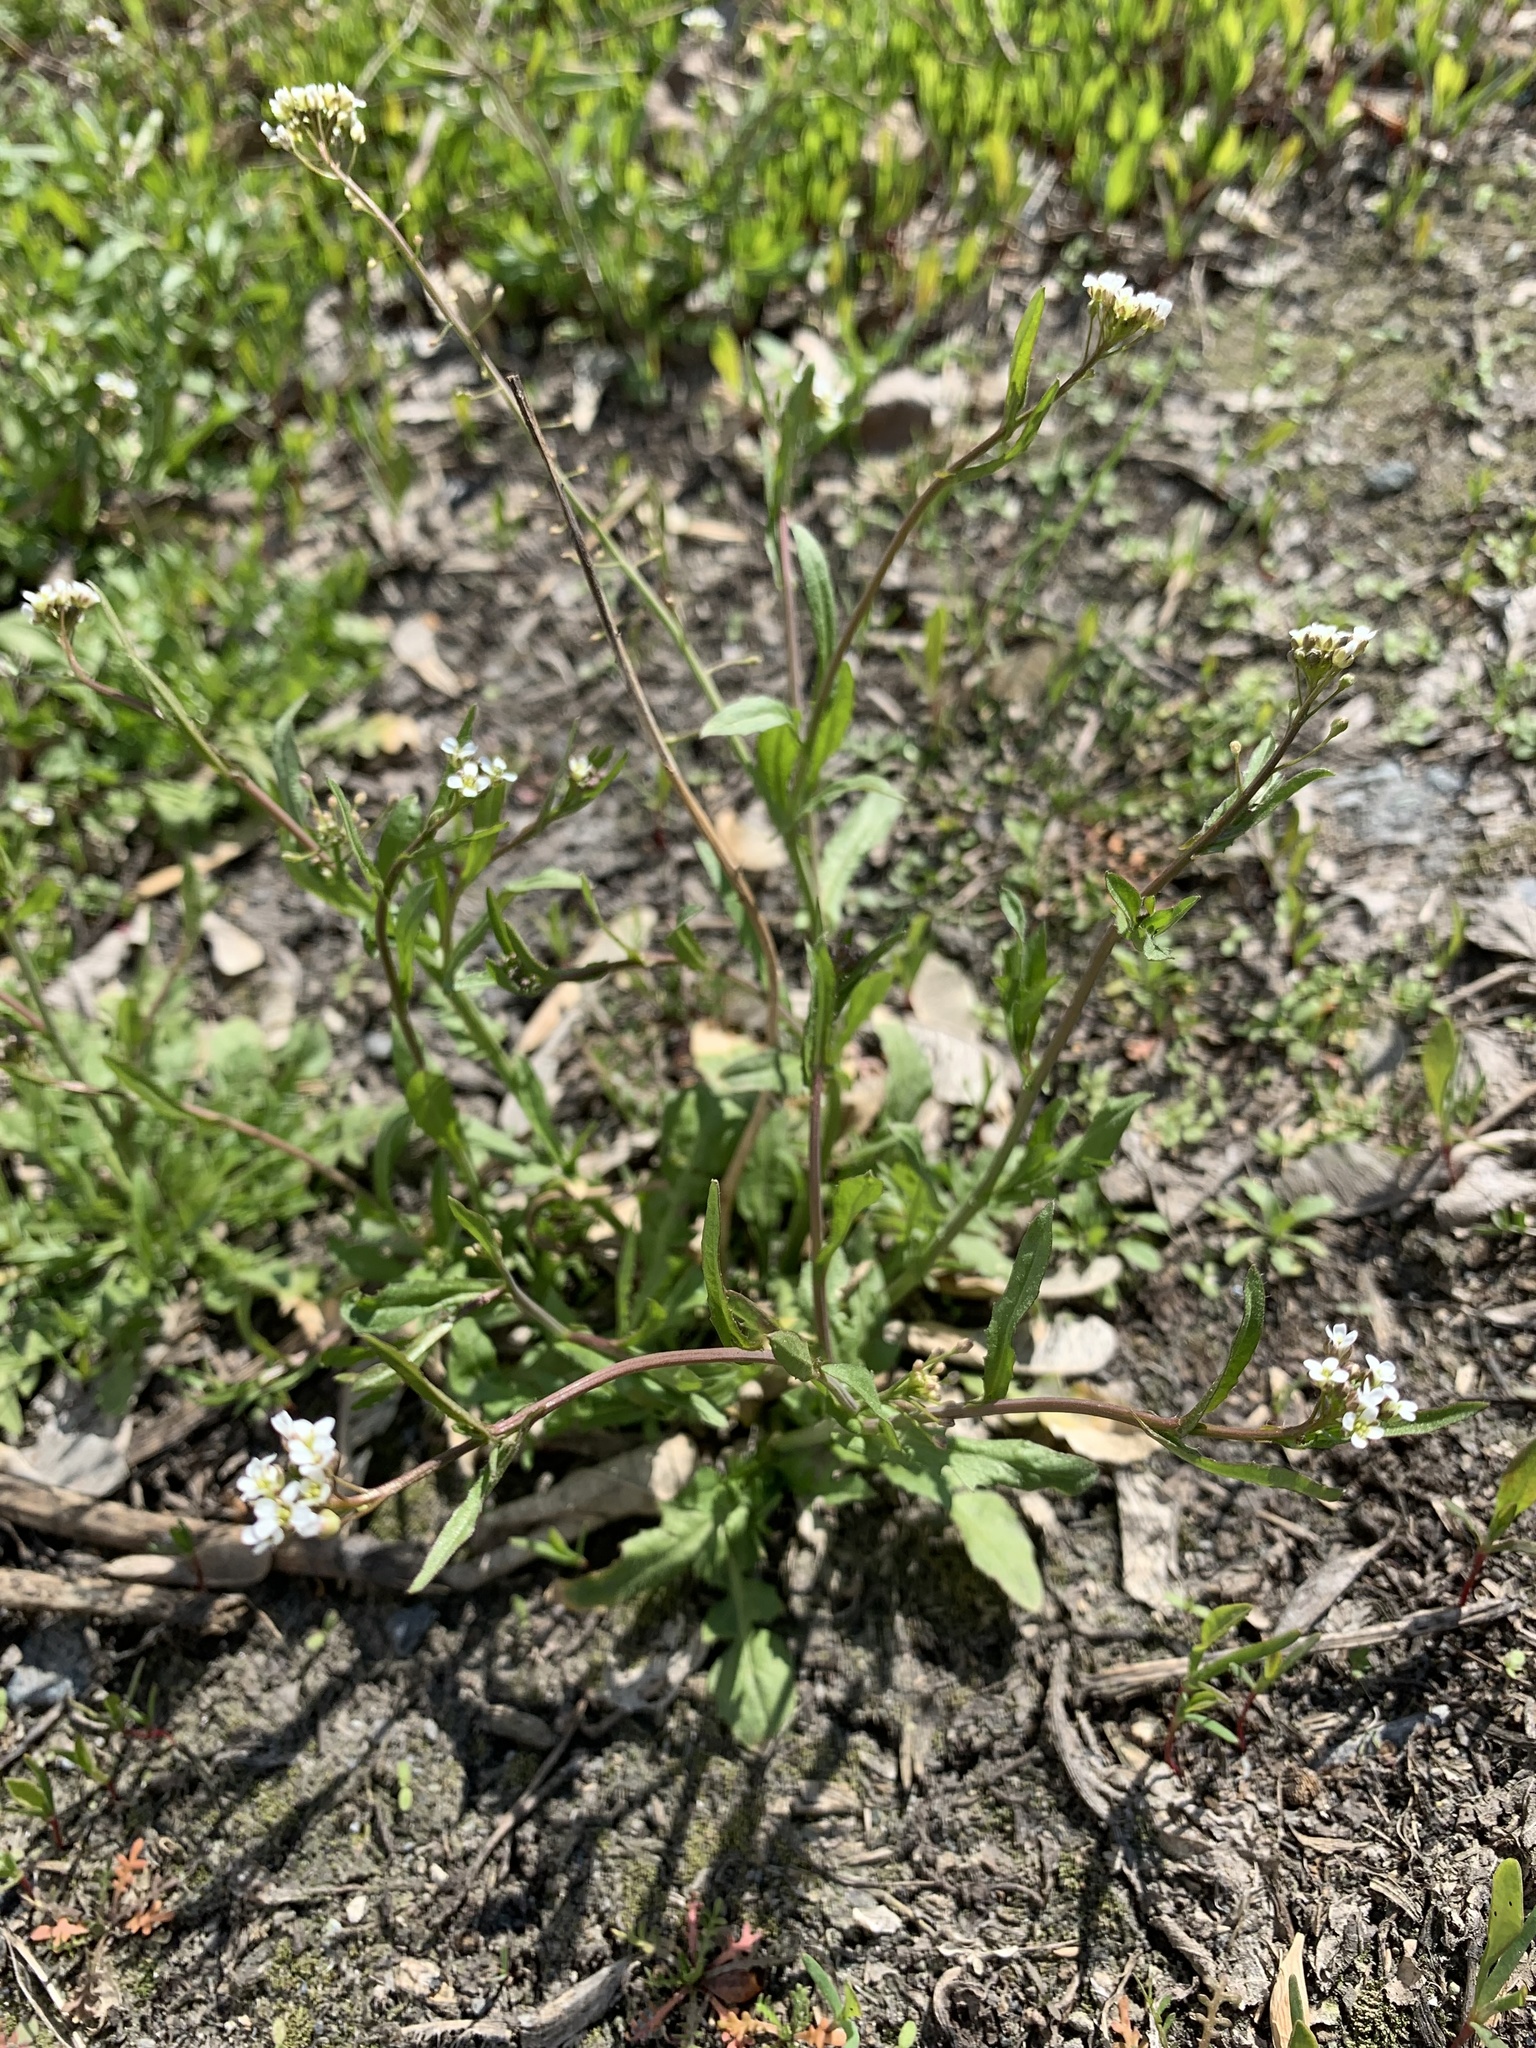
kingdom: Plantae
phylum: Tracheophyta
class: Magnoliopsida
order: Brassicales
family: Brassicaceae
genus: Capsella
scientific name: Capsella bursa-pastoris
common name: Shepherd's purse
